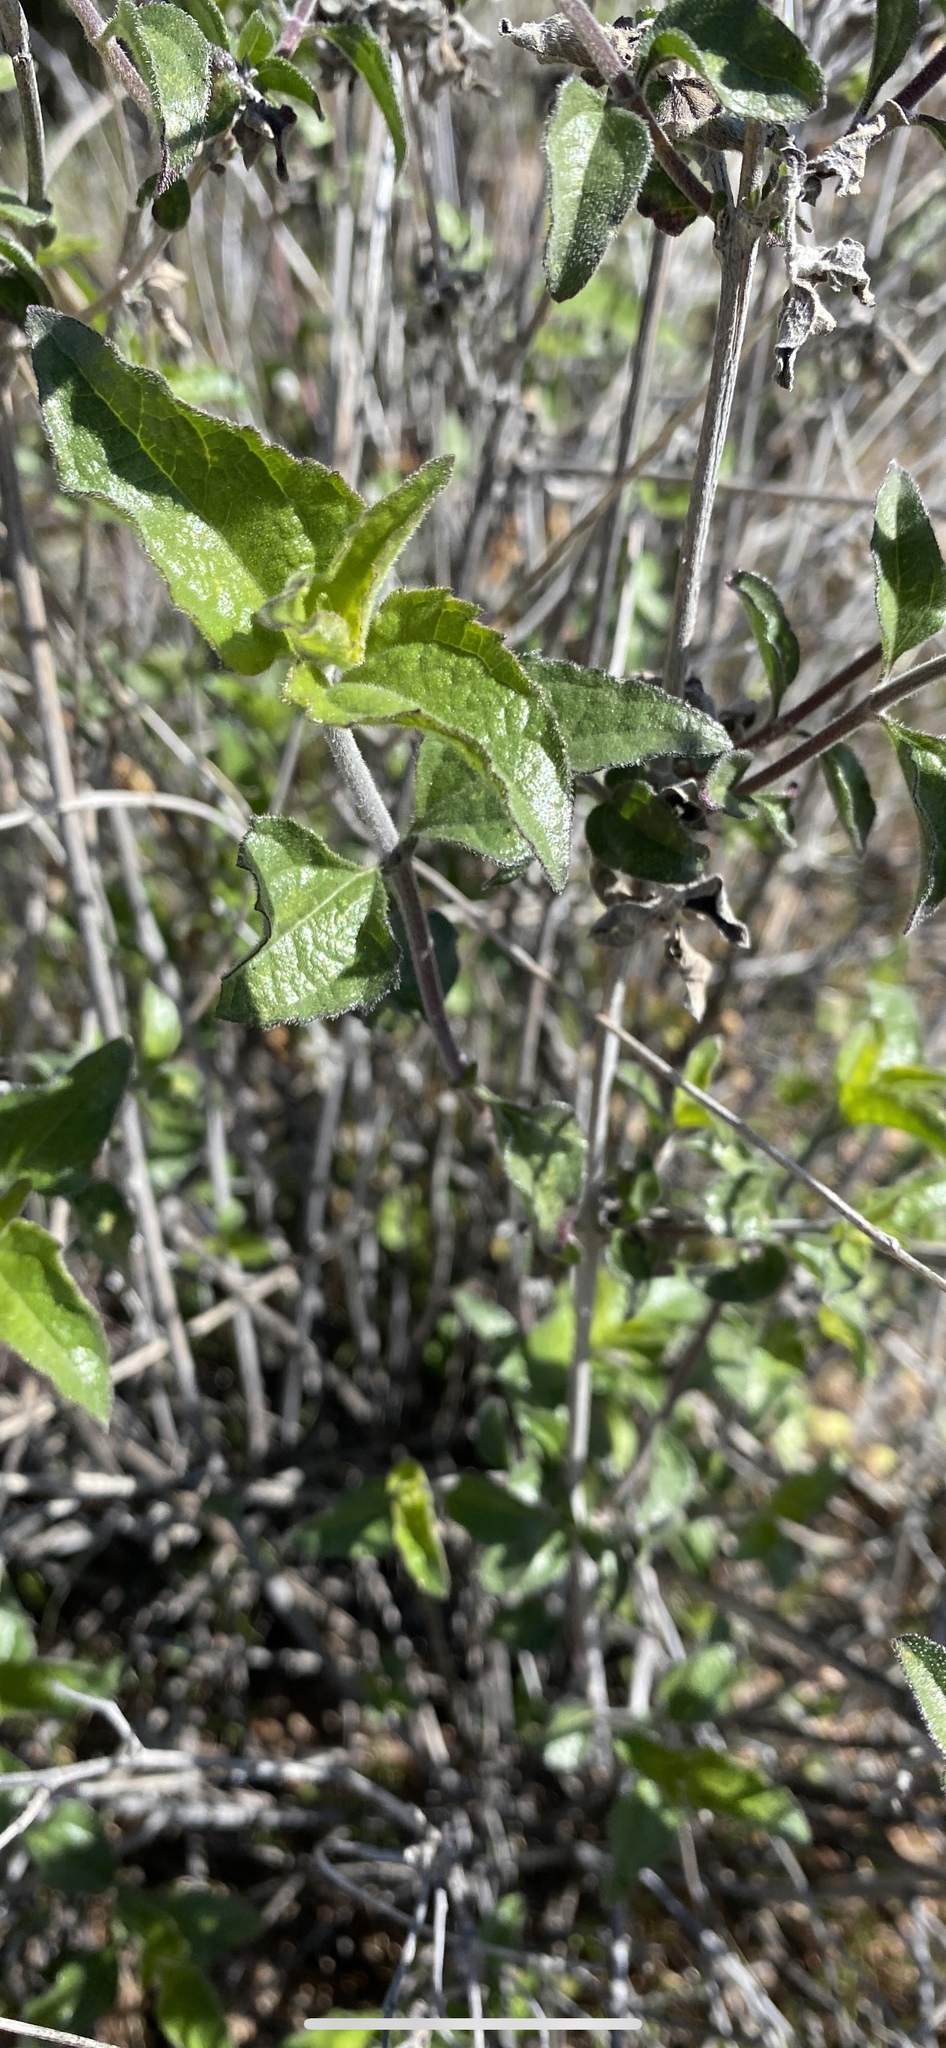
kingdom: Plantae
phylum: Tracheophyta
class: Magnoliopsida
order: Asterales
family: Asteraceae
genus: Bahiopsis
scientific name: Bahiopsis parishii
